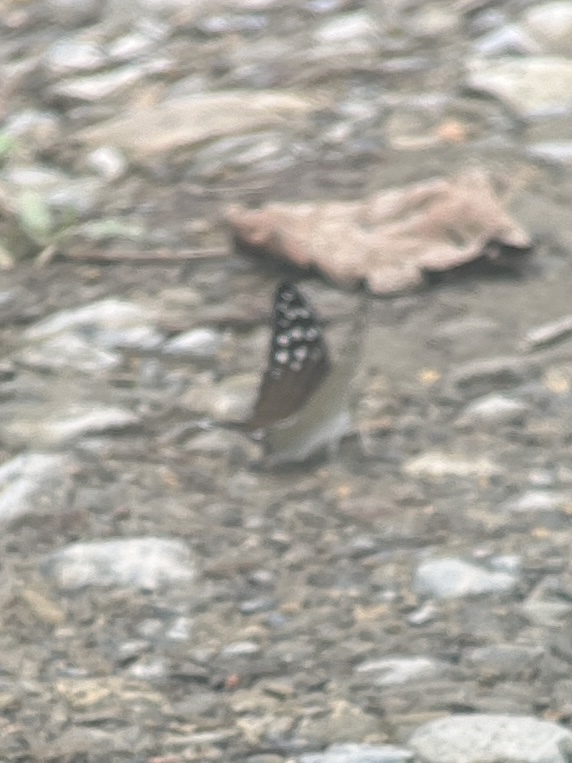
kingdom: Animalia
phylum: Arthropoda
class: Insecta
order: Lepidoptera
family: Nymphalidae
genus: Marpesia
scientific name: Marpesia merops
